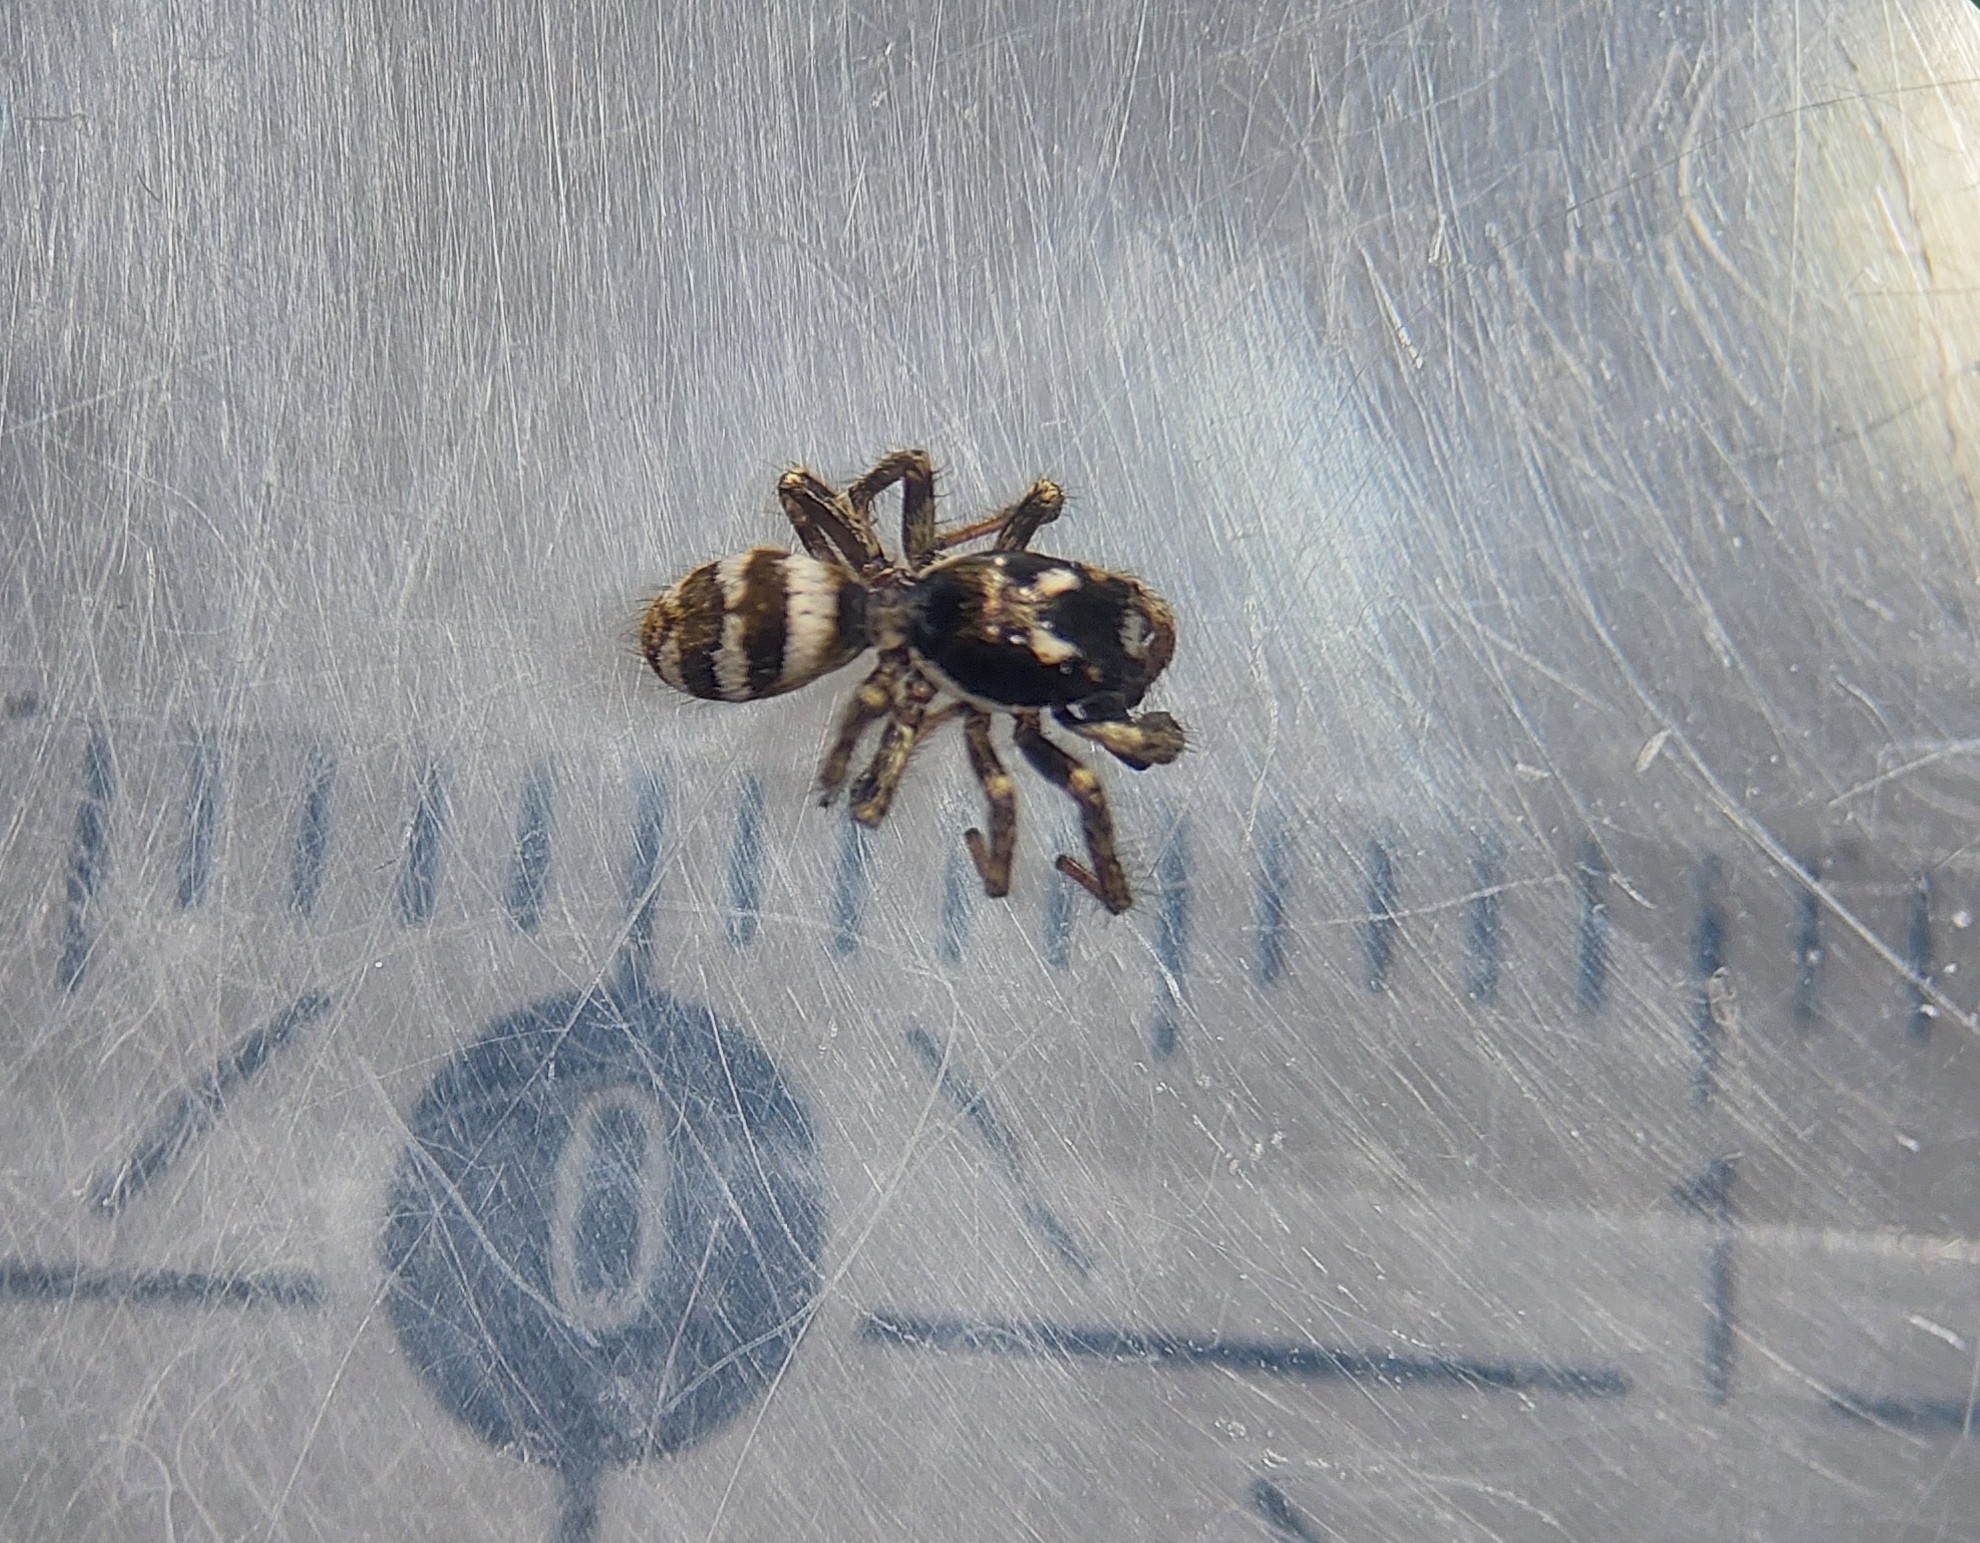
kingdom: Animalia
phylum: Arthropoda
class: Arachnida
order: Araneae
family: Salticidae
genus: Salticus
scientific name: Salticus scenicus
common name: Zebra jumper
